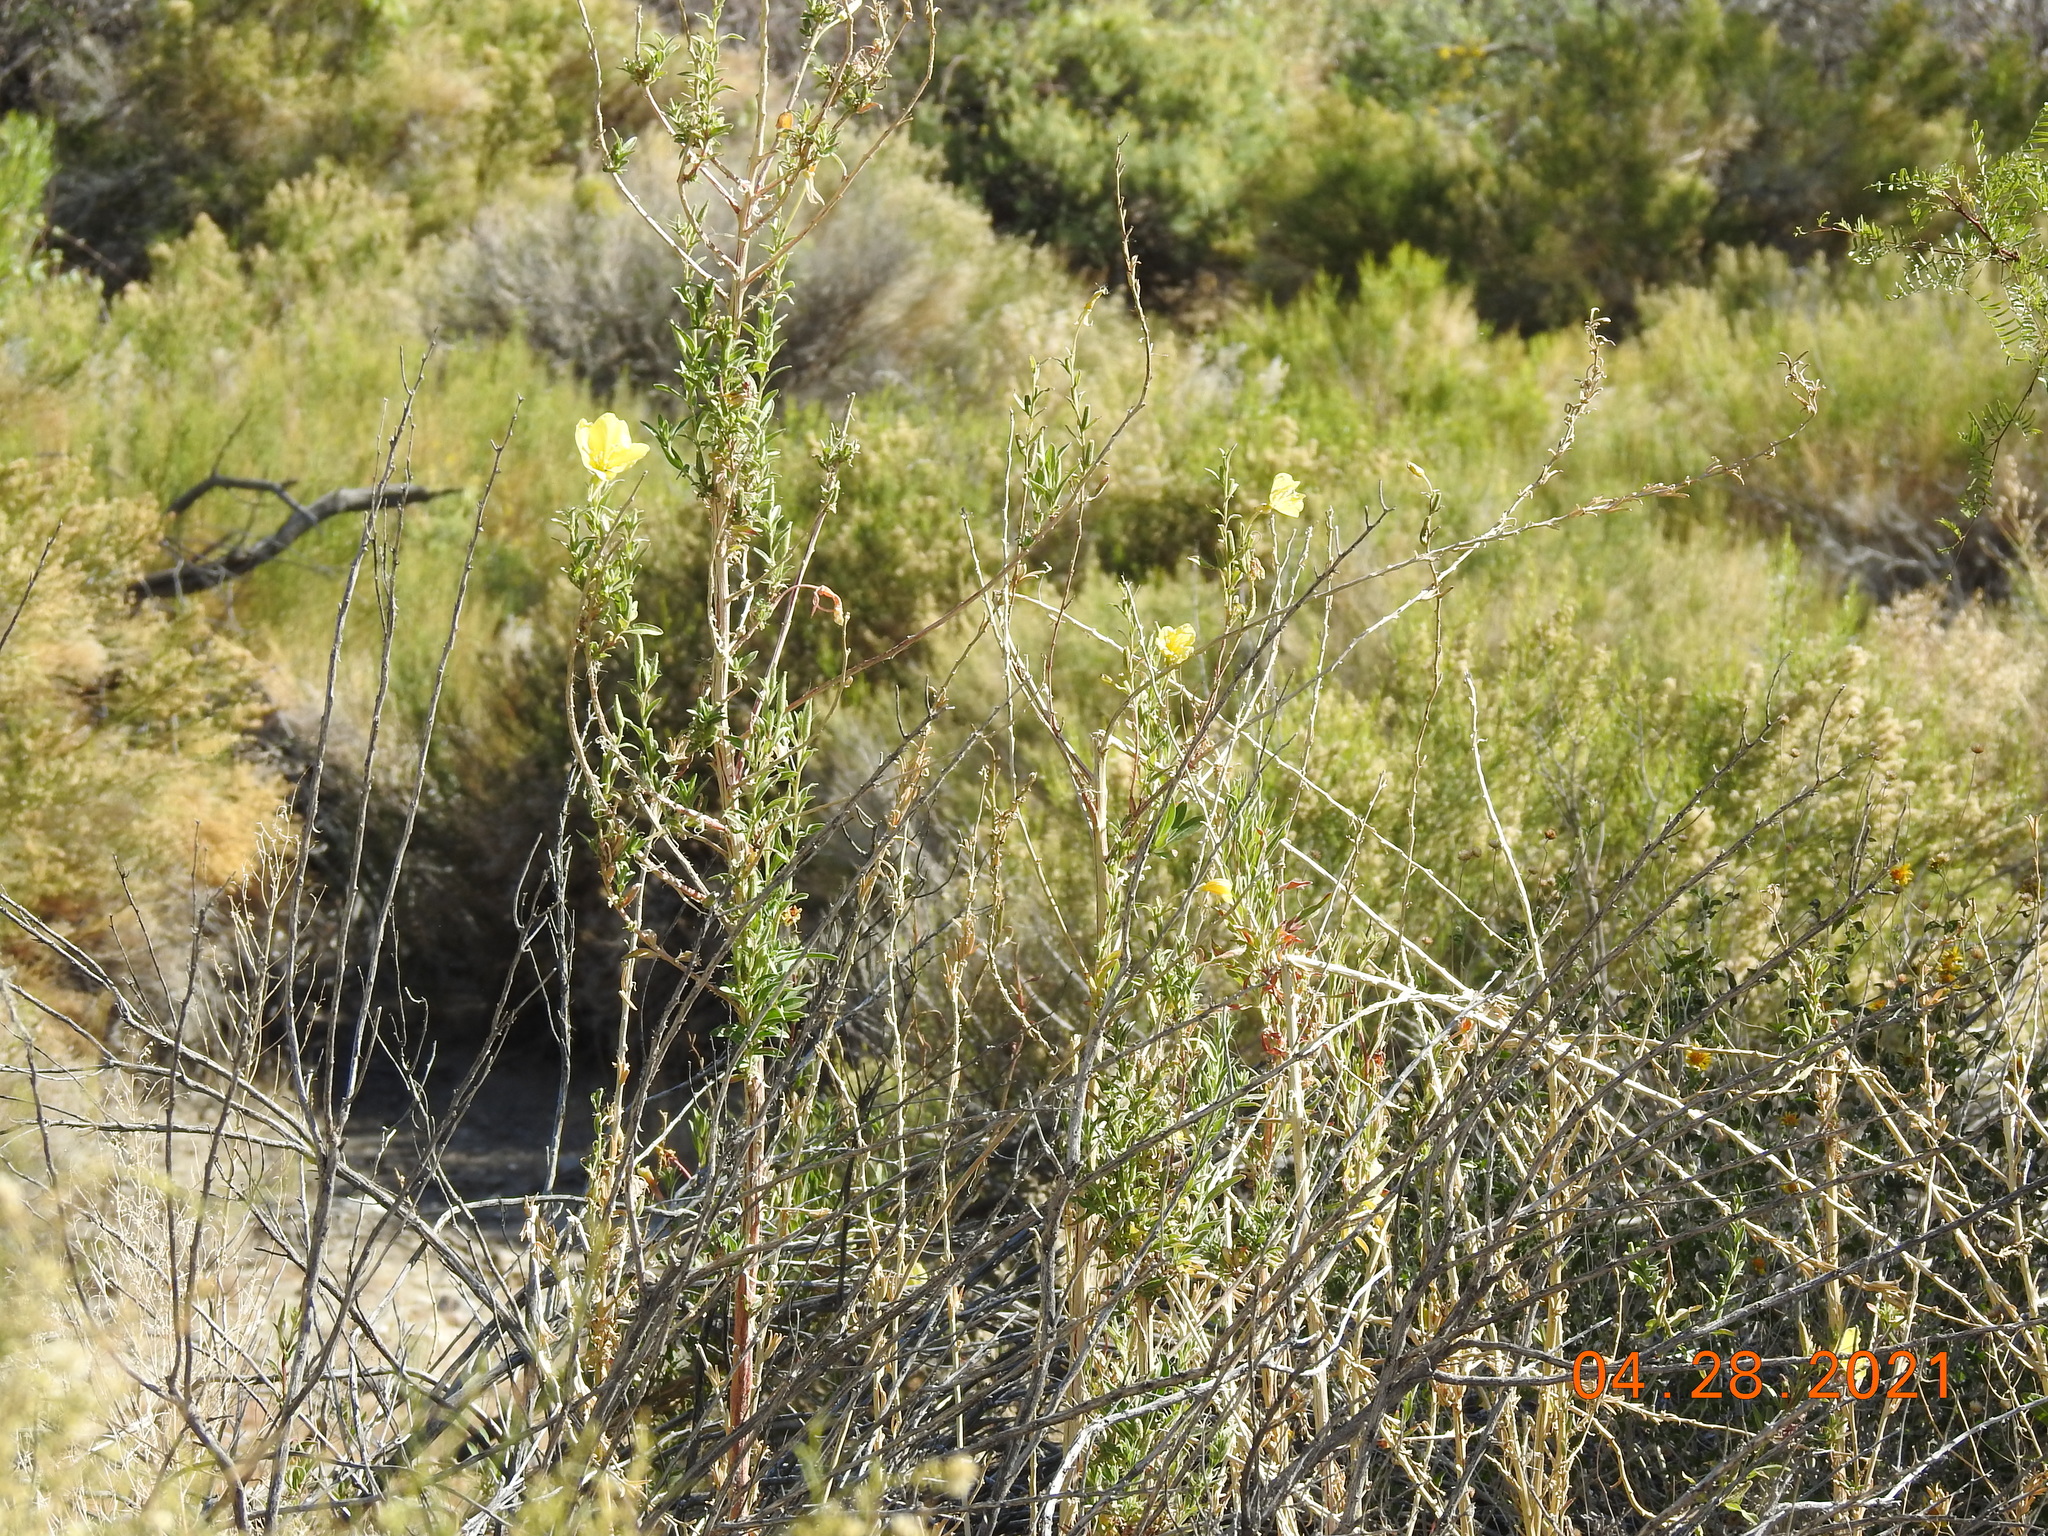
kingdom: Plantae
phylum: Tracheophyta
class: Magnoliopsida
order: Myrtales
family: Onagraceae
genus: Oenothera
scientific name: Oenothera elata
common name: Hooker's evening-primrose
